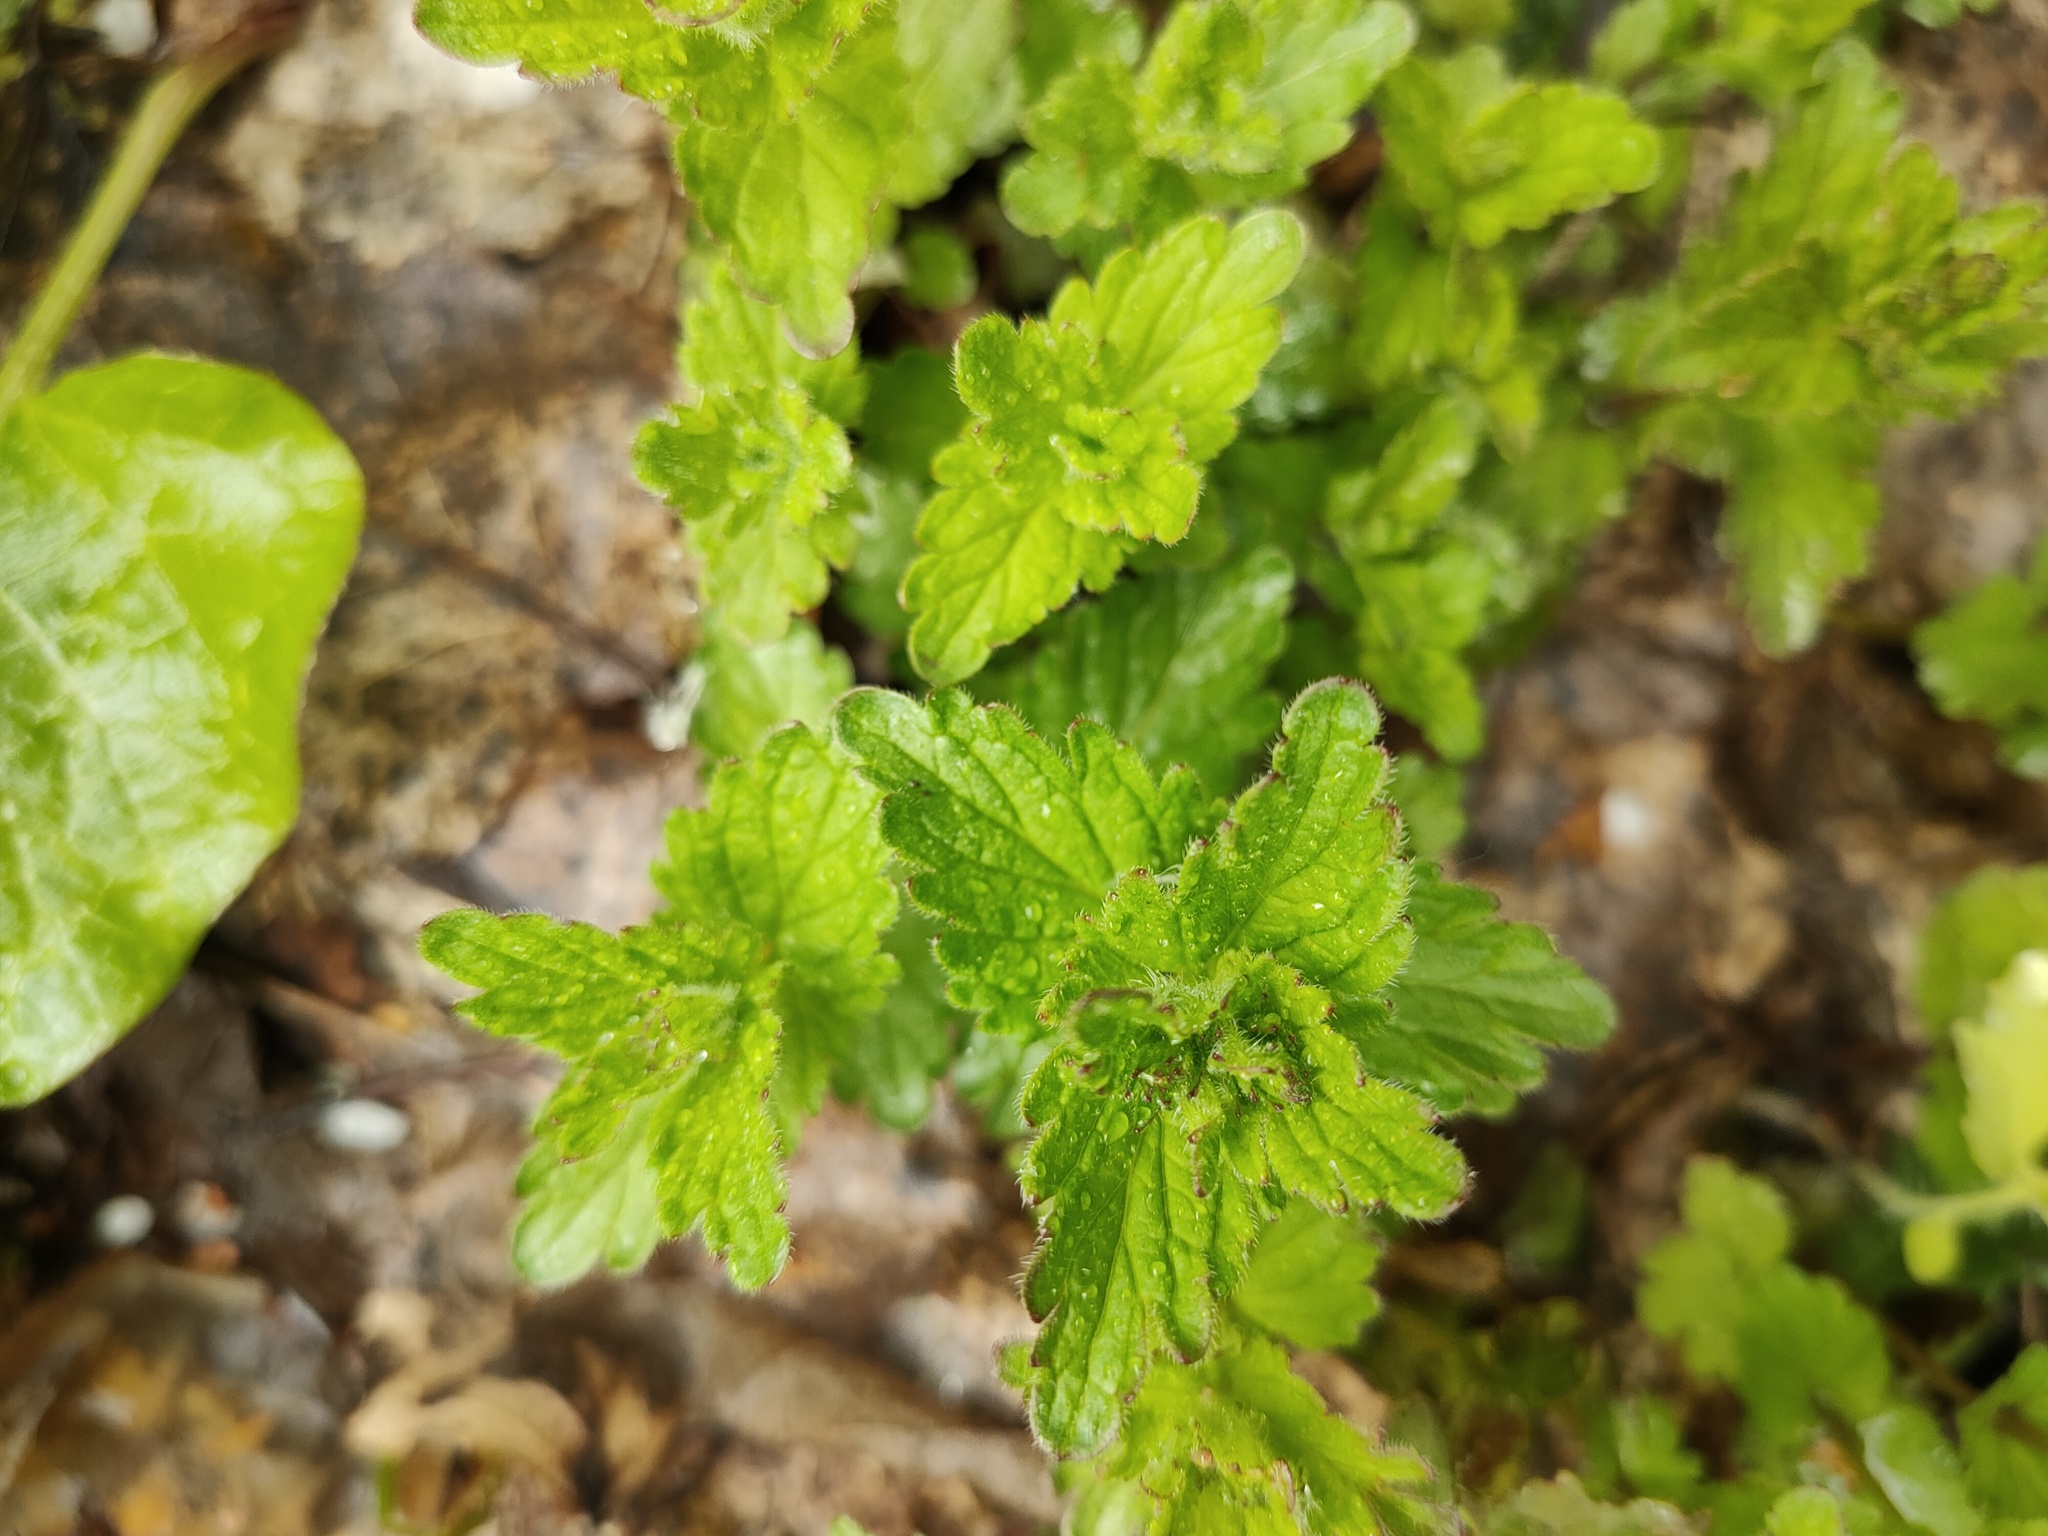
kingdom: Plantae
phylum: Tracheophyta
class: Magnoliopsida
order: Lamiales
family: Plantaginaceae
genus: Veronica
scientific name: Veronica chamaedrys
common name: Germander speedwell
